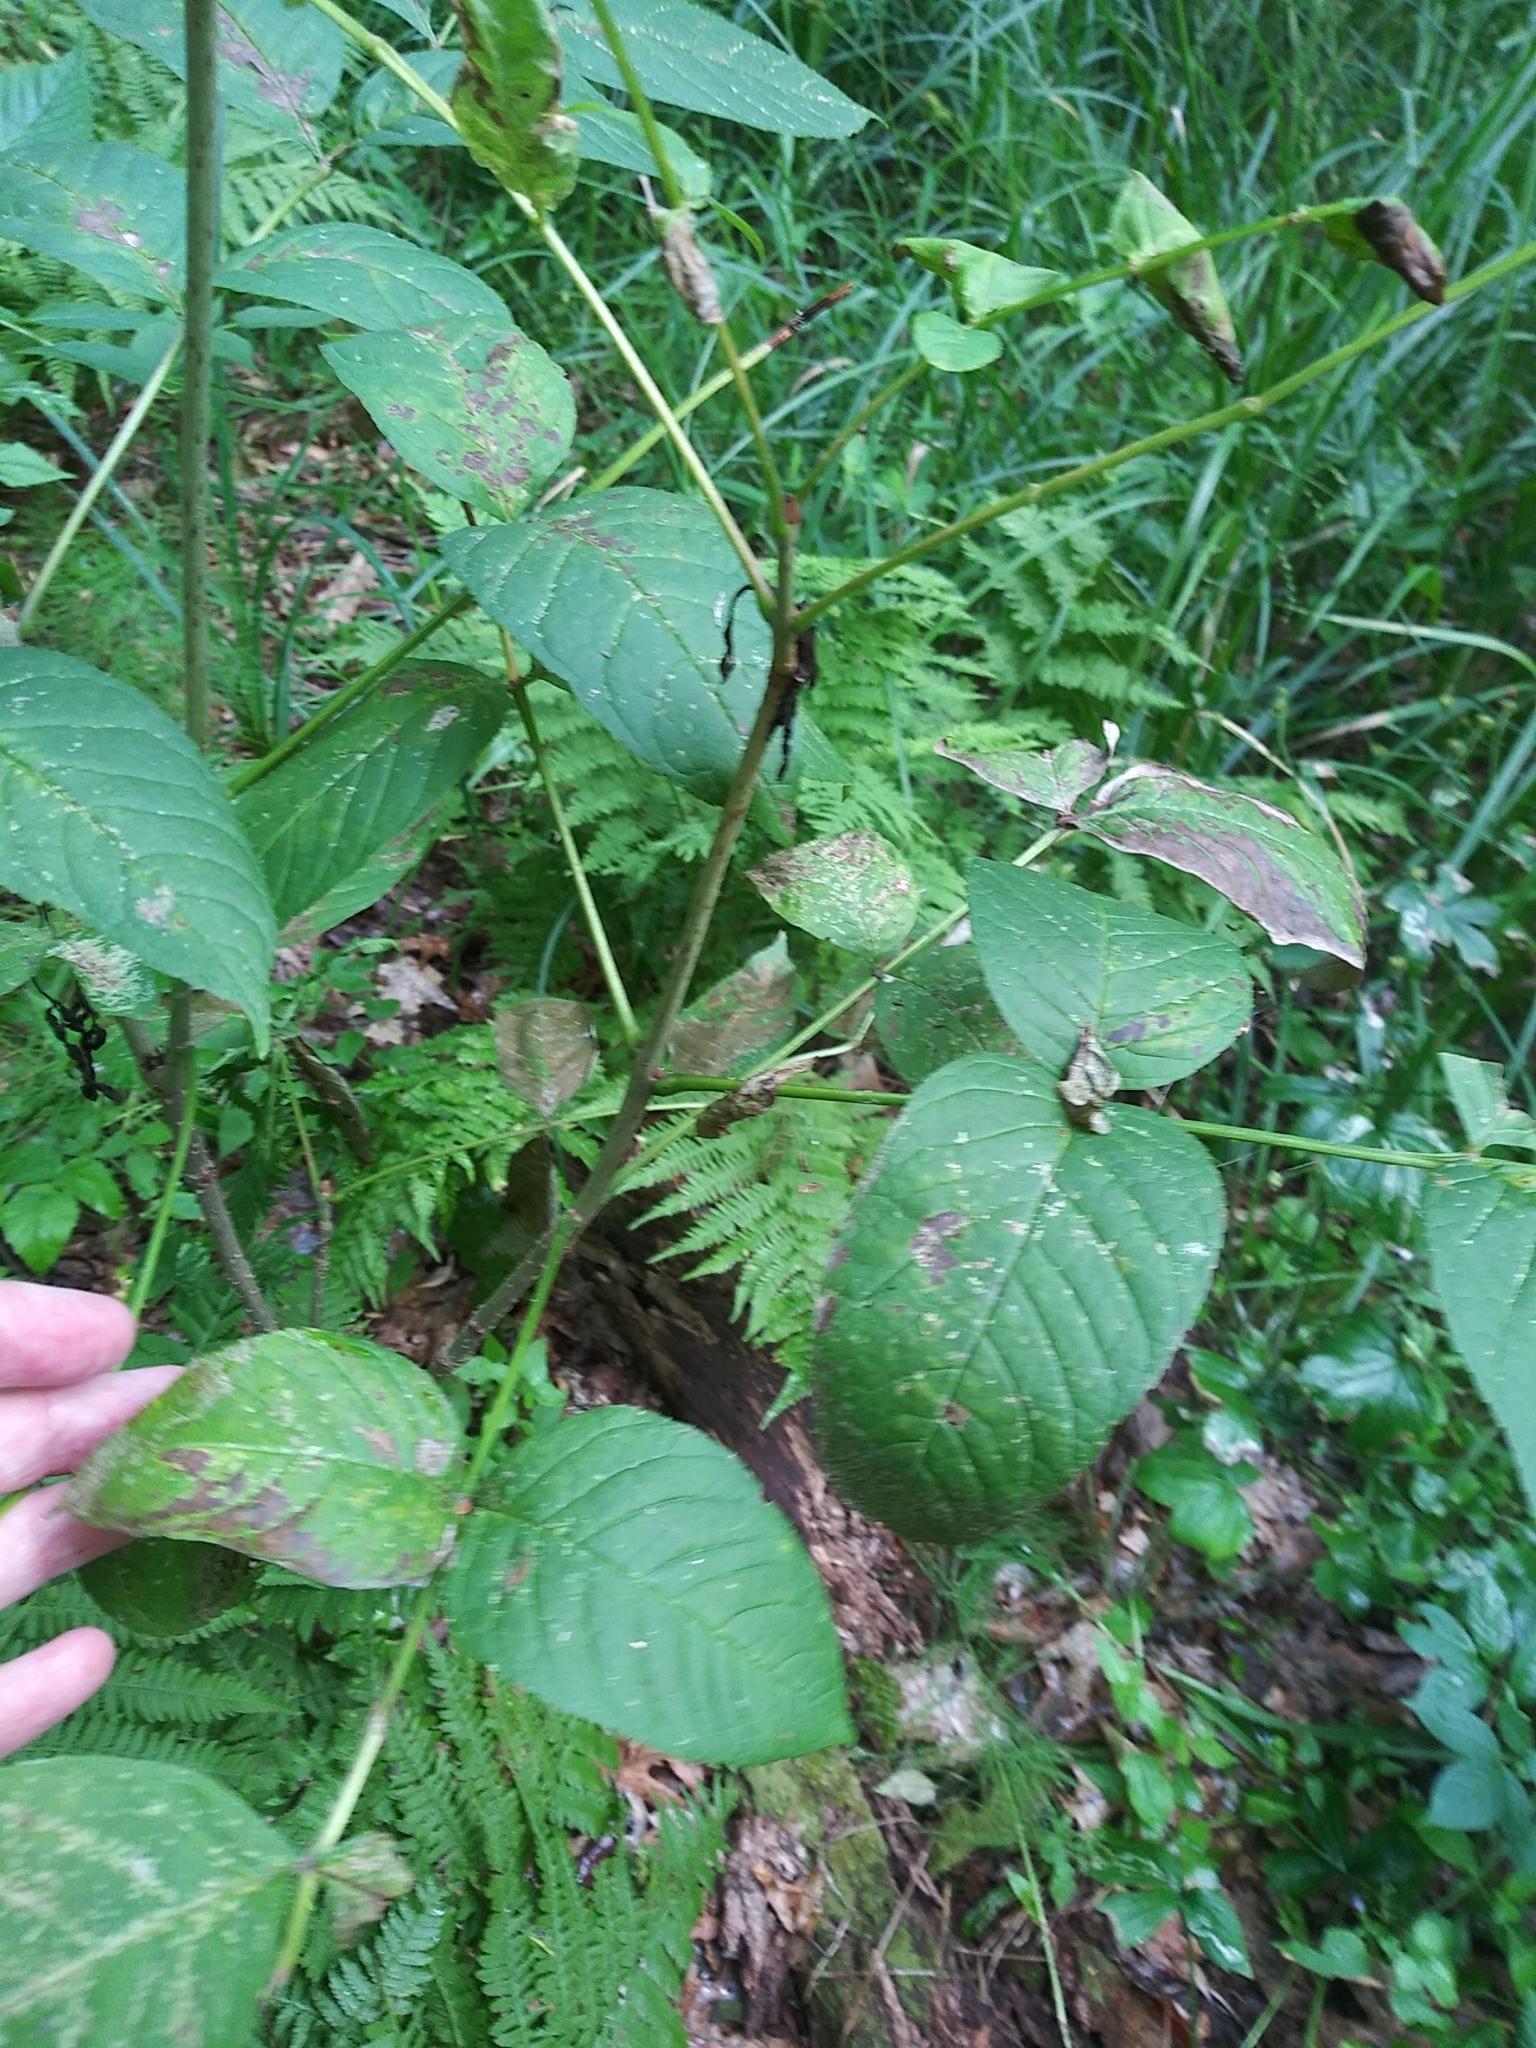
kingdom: Plantae
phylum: Tracheophyta
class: Magnoliopsida
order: Lamiales
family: Oleaceae
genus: Fraxinus
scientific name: Fraxinus nigra
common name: Black ash
